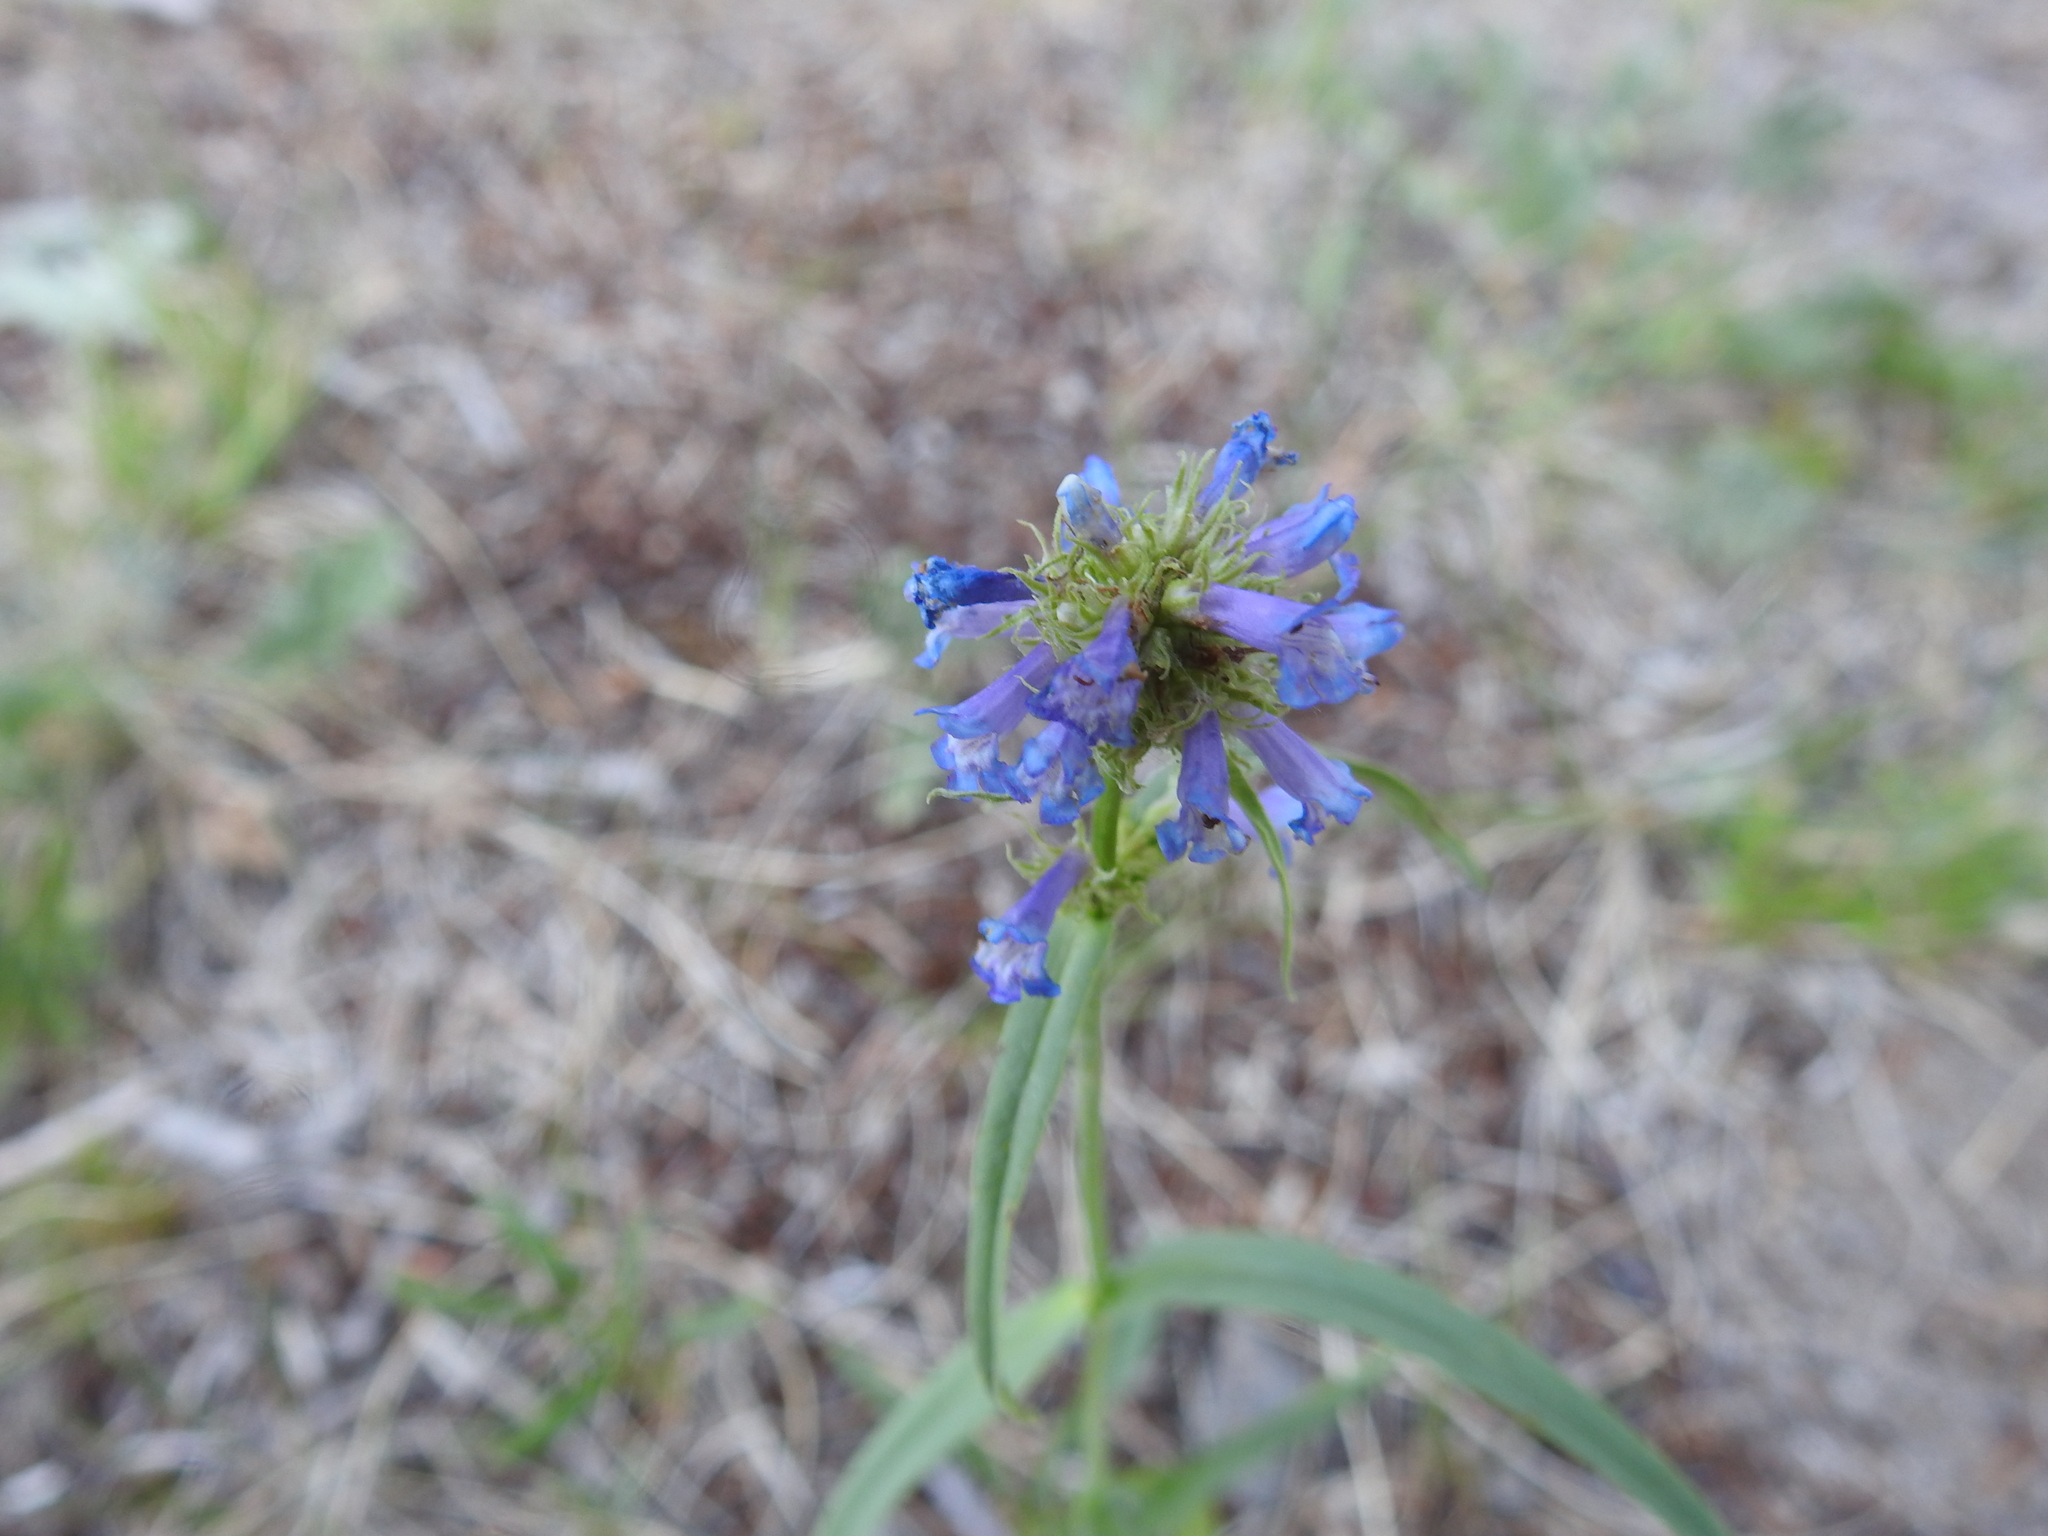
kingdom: Plantae
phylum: Tracheophyta
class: Magnoliopsida
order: Lamiales
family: Plantaginaceae
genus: Penstemon
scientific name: Penstemon procerus
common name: Small-flower penstemon
